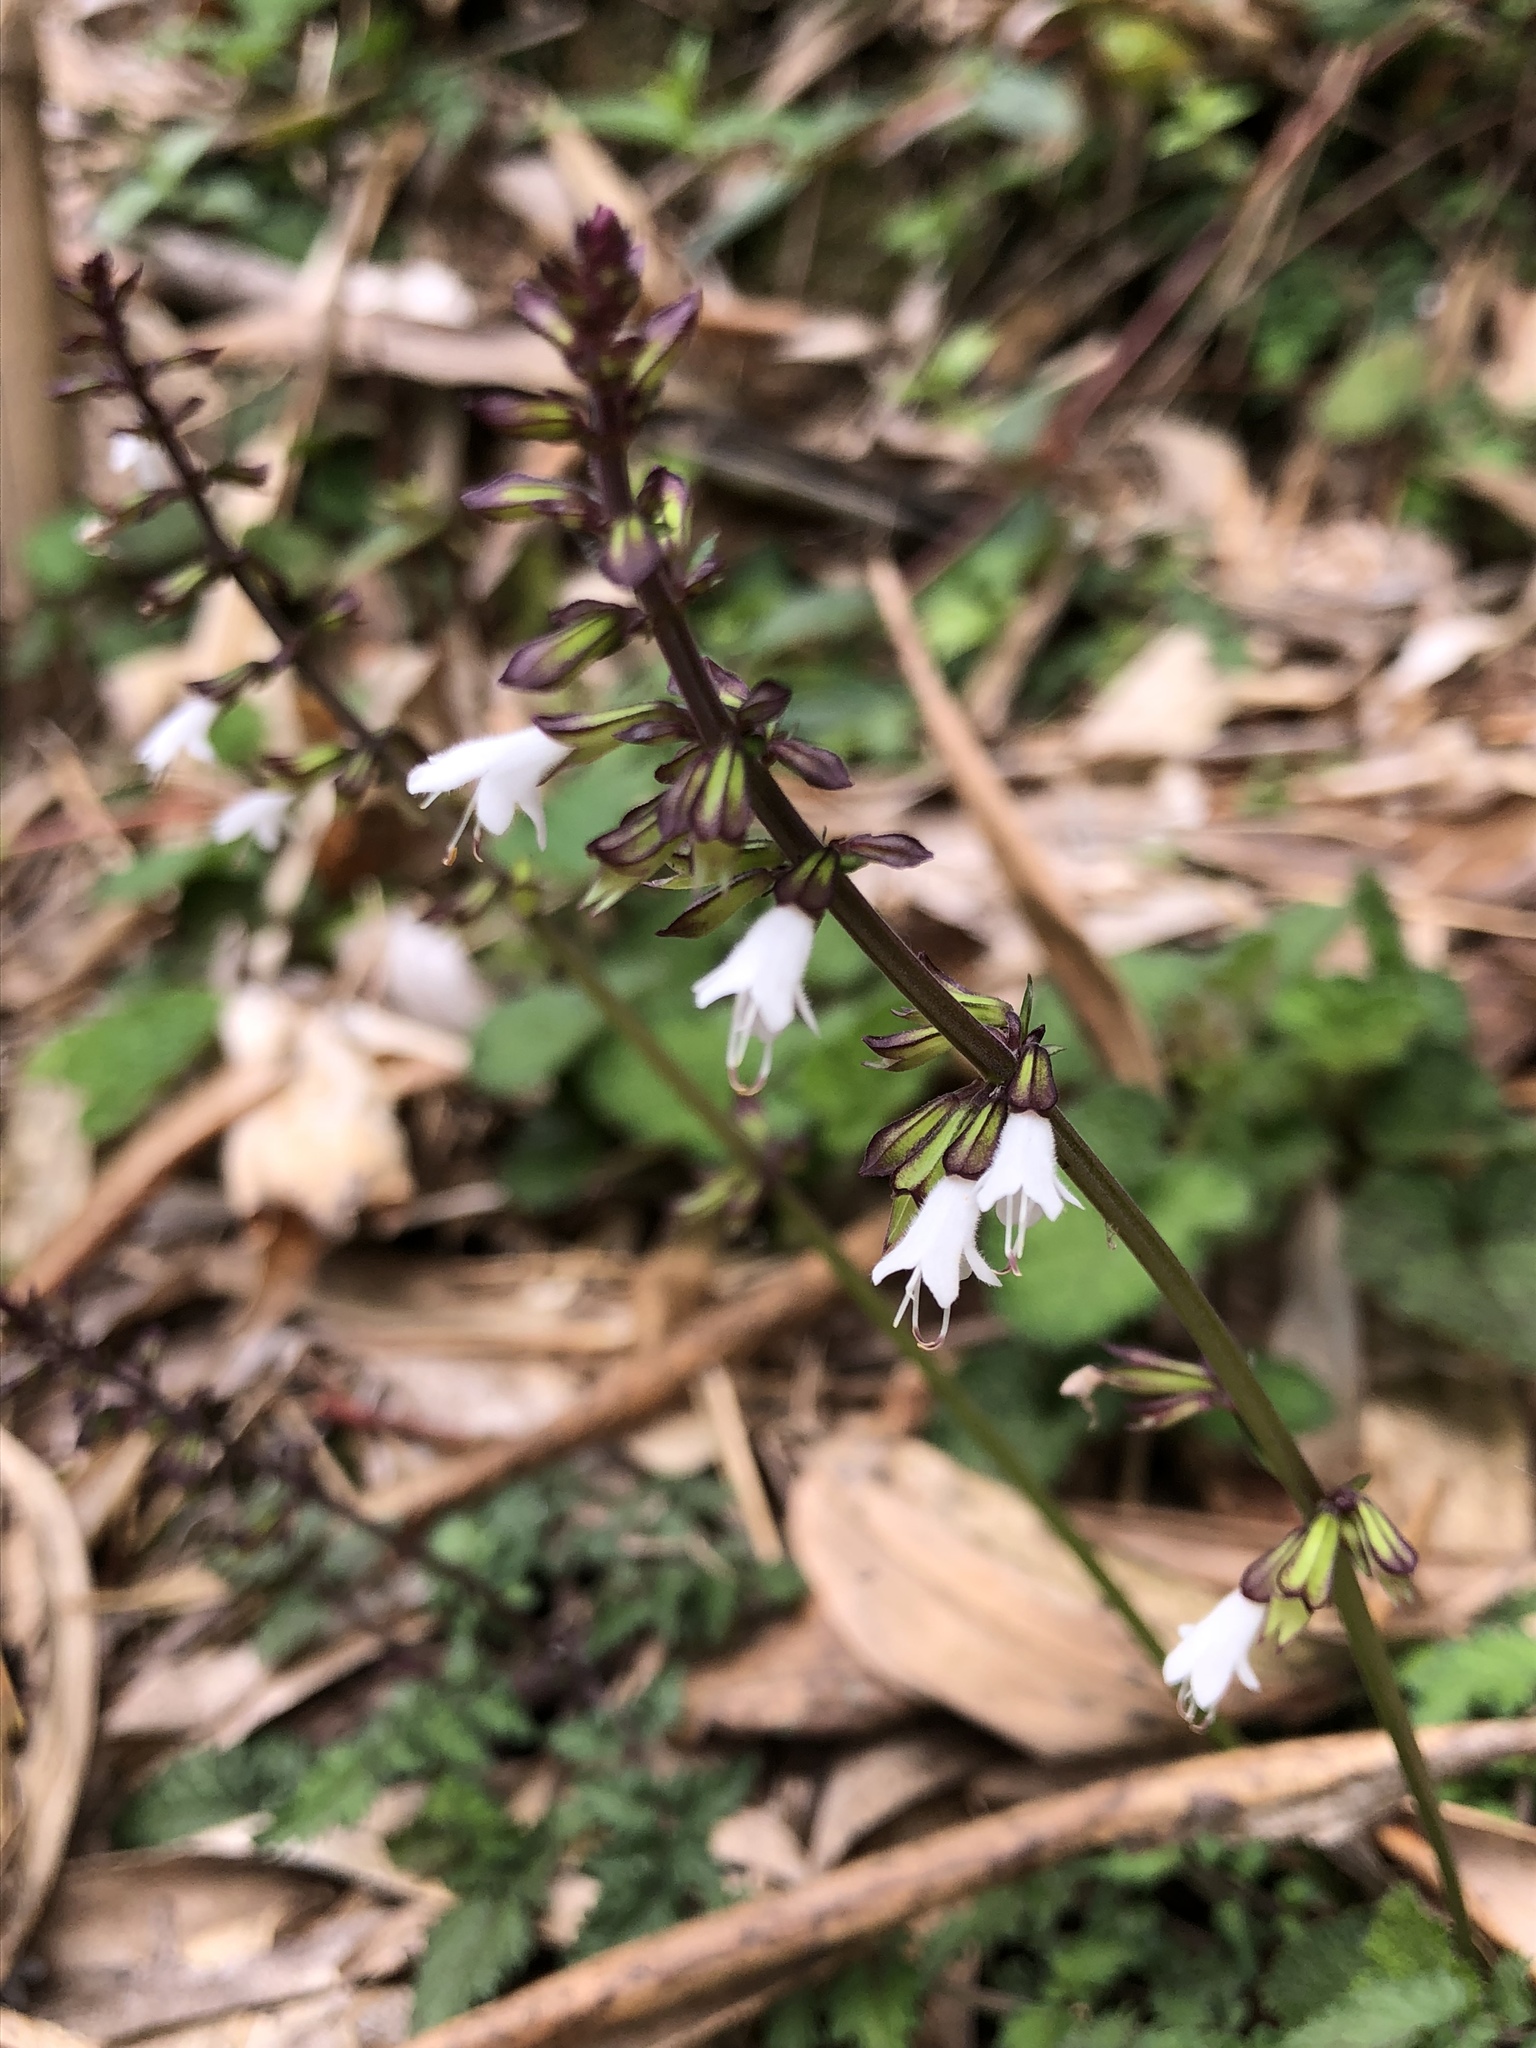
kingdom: Plantae
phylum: Tracheophyta
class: Magnoliopsida
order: Lamiales
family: Lamiaceae
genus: Salvia
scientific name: Salvia hayatae
